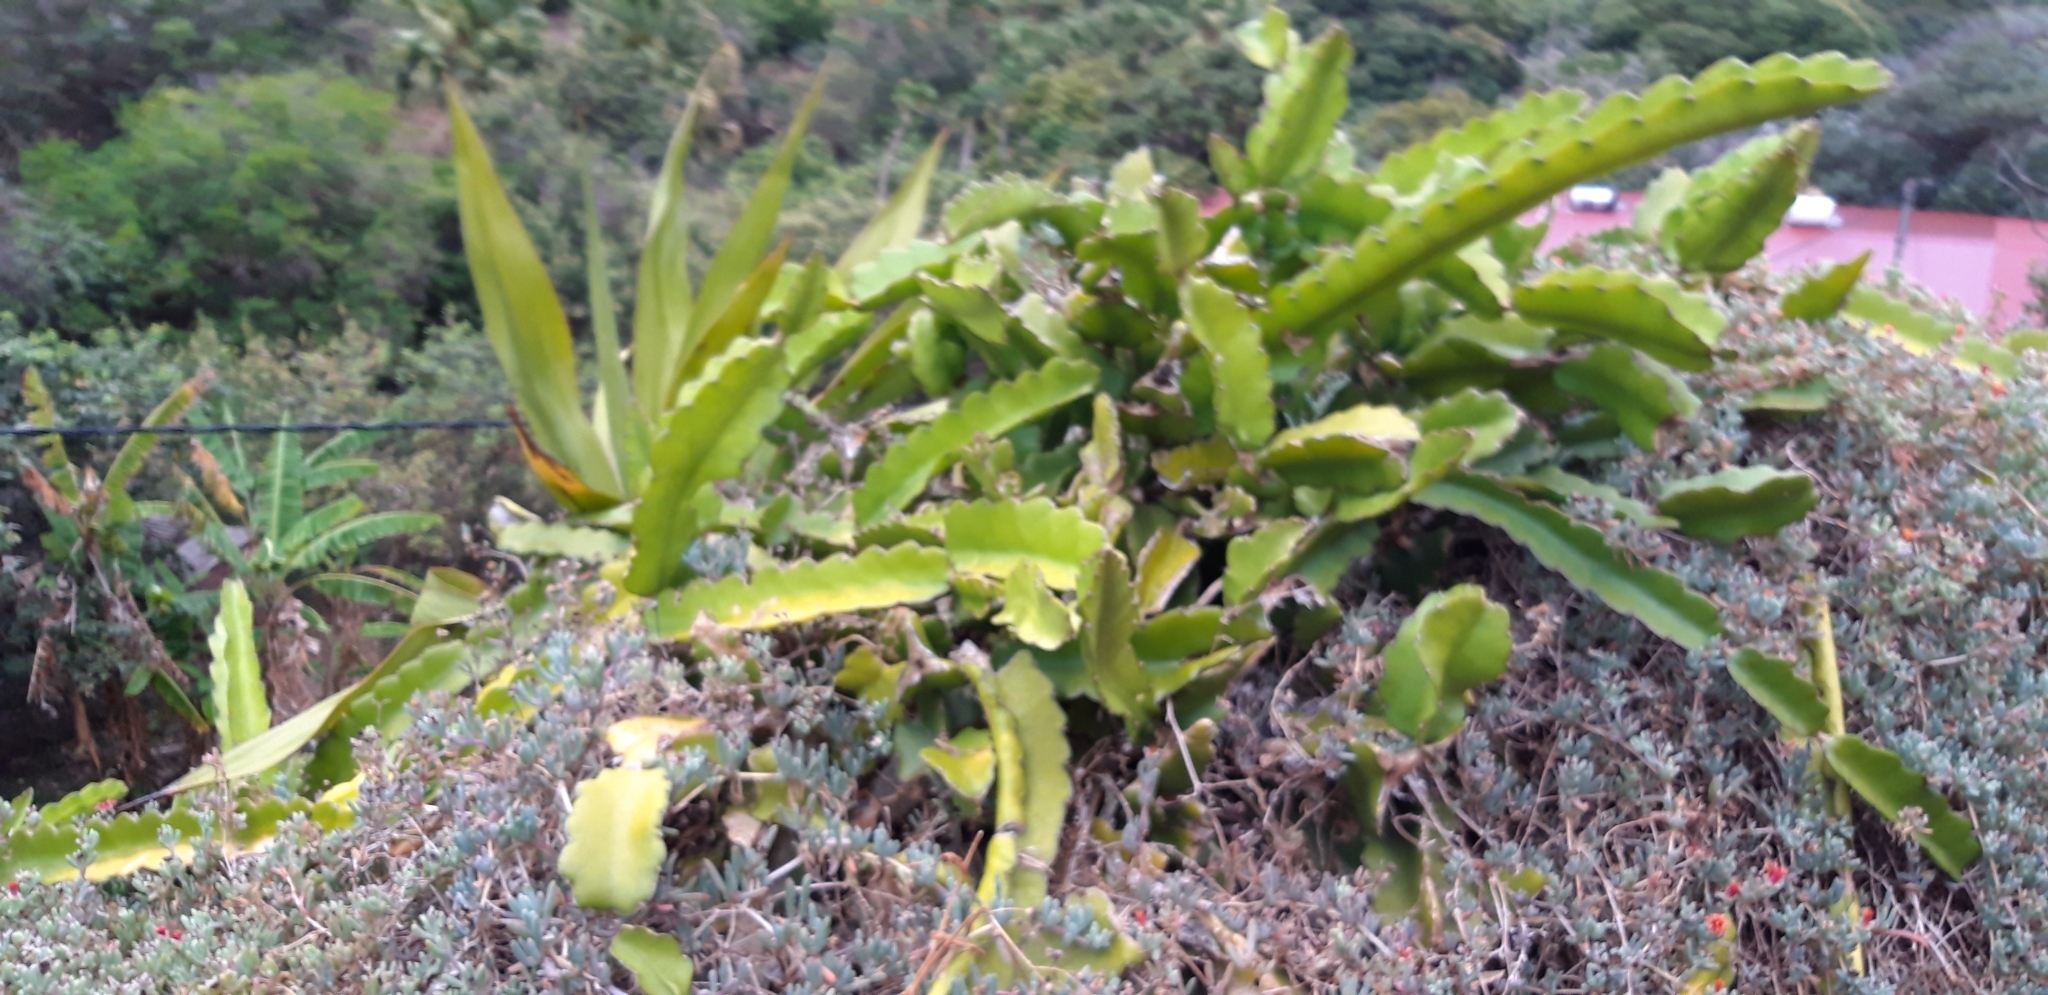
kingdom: Plantae
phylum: Tracheophyta
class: Magnoliopsida
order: Caryophyllales
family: Cactaceae
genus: Selenicereus
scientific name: Selenicereus undatus
